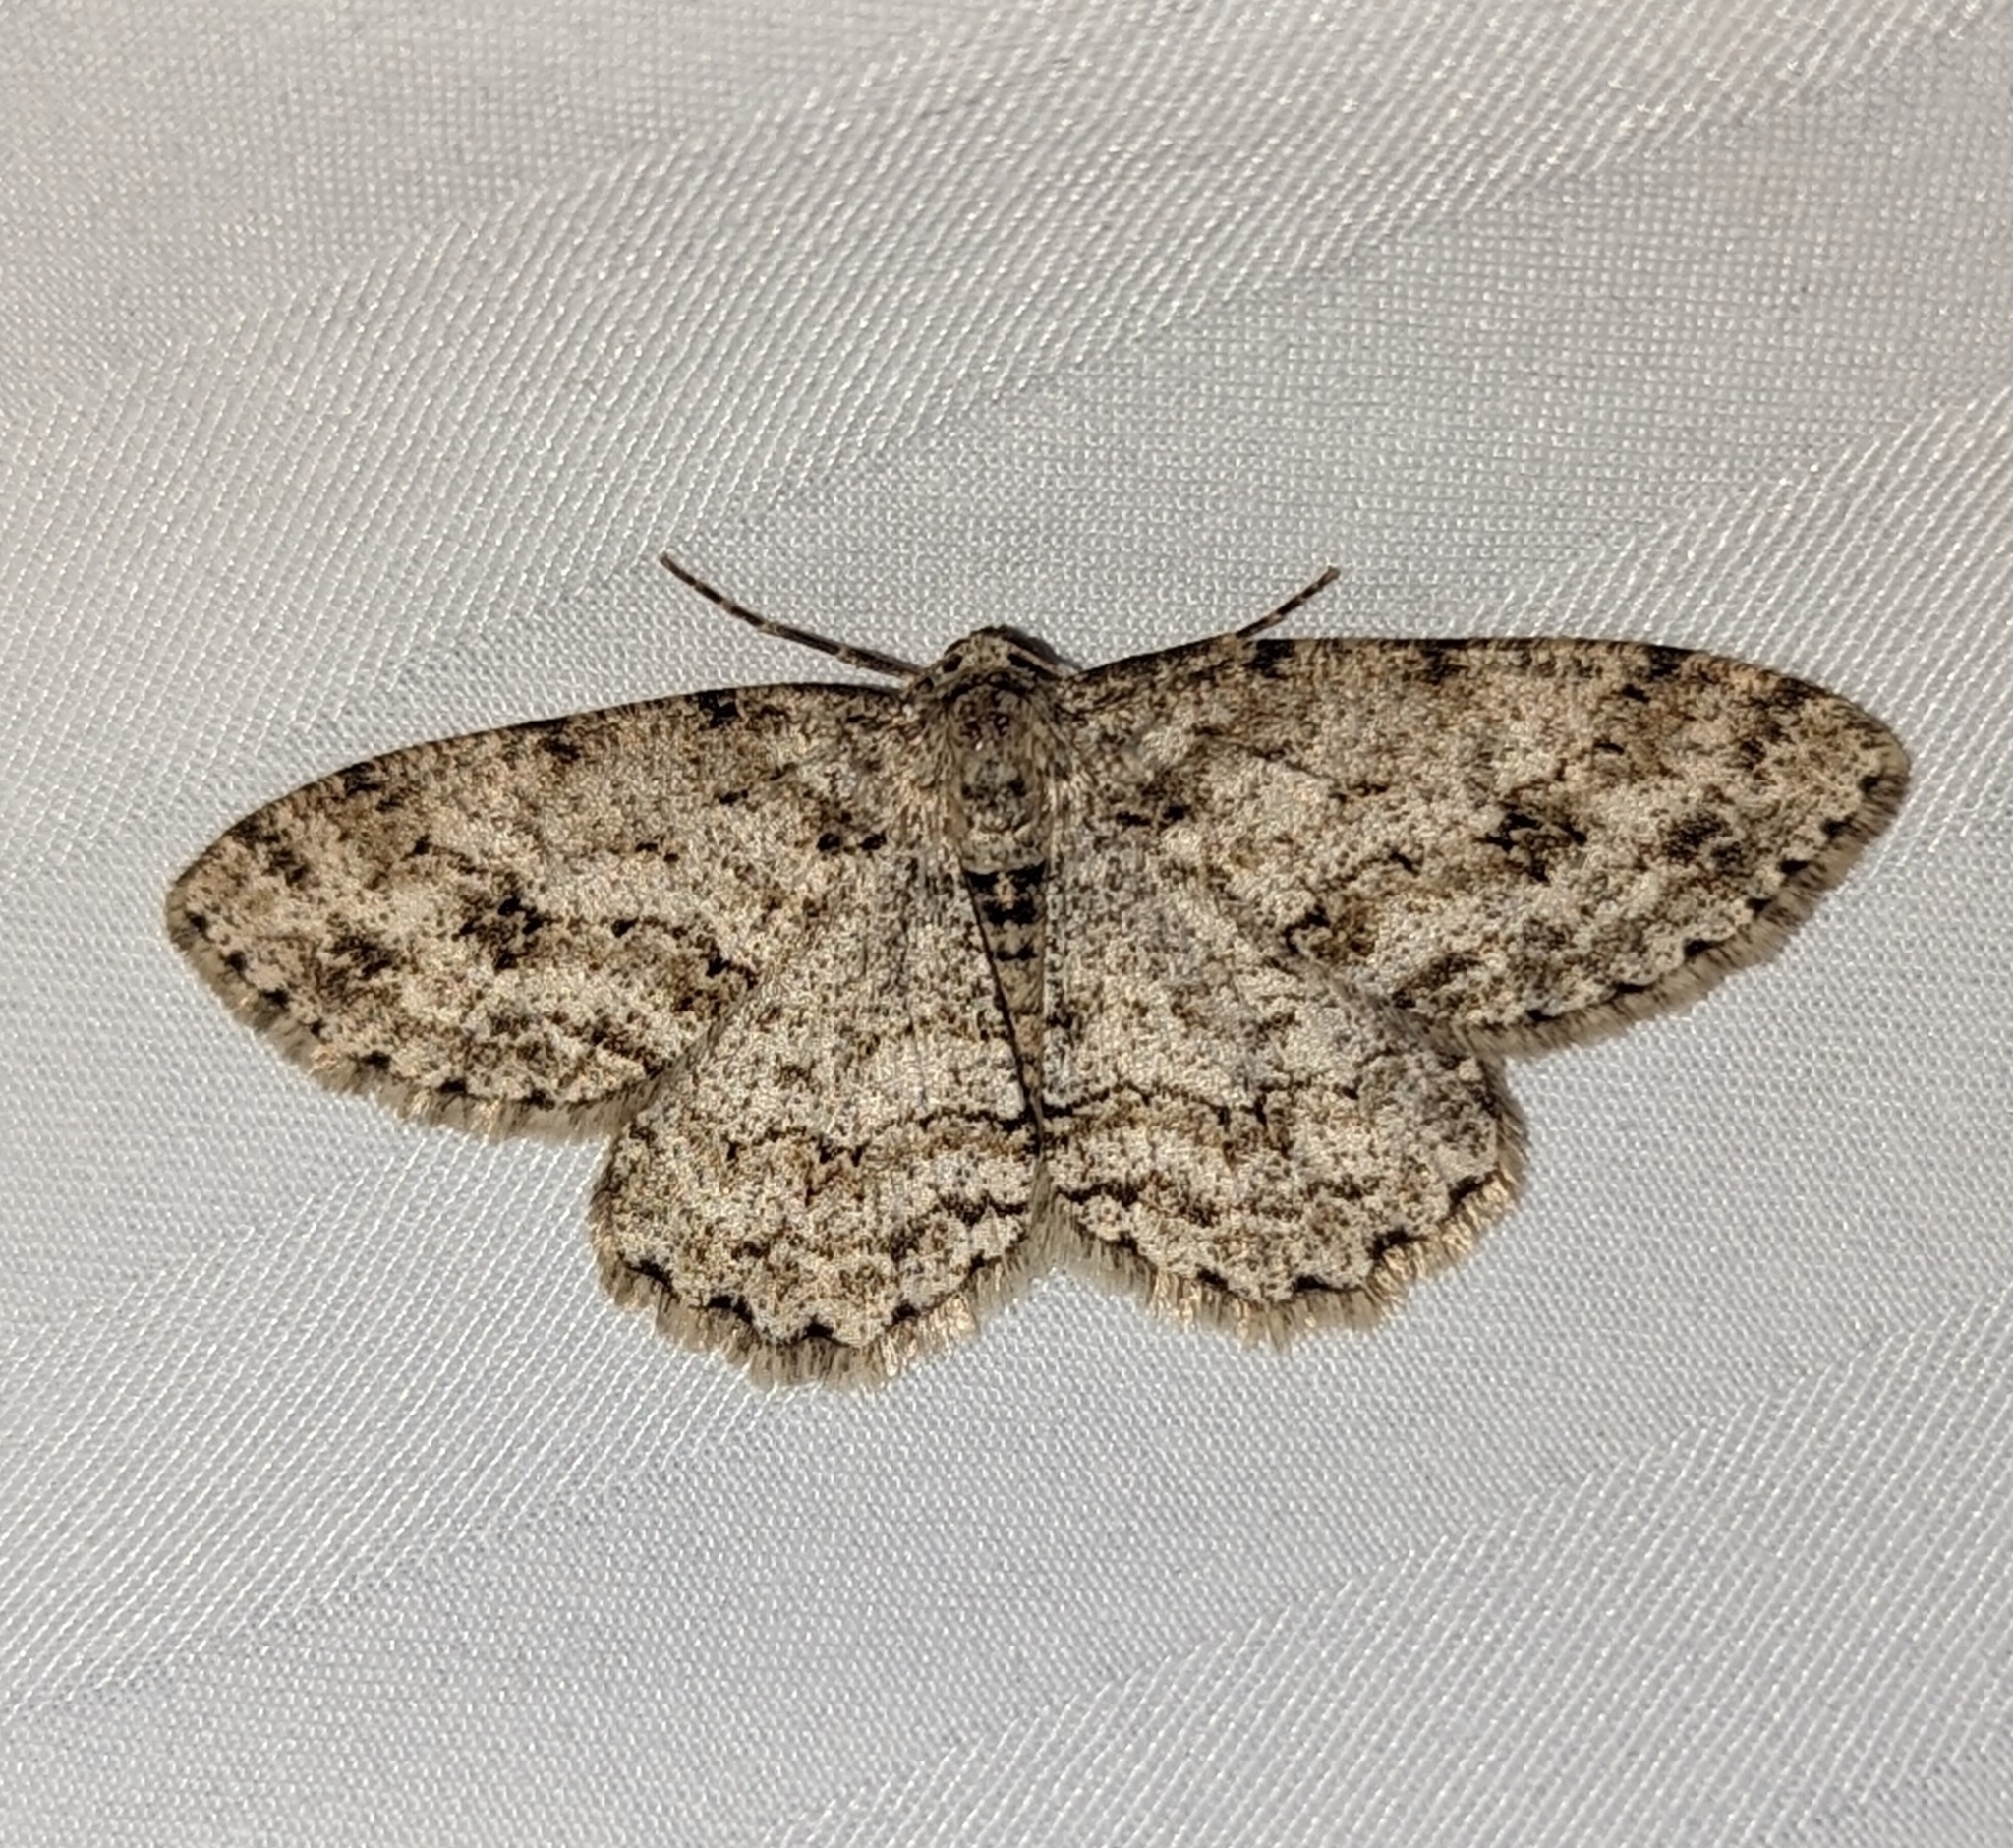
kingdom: Animalia
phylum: Arthropoda
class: Insecta
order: Lepidoptera
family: Geometridae
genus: Ectropis
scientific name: Ectropis crepuscularia
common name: Engrailed
